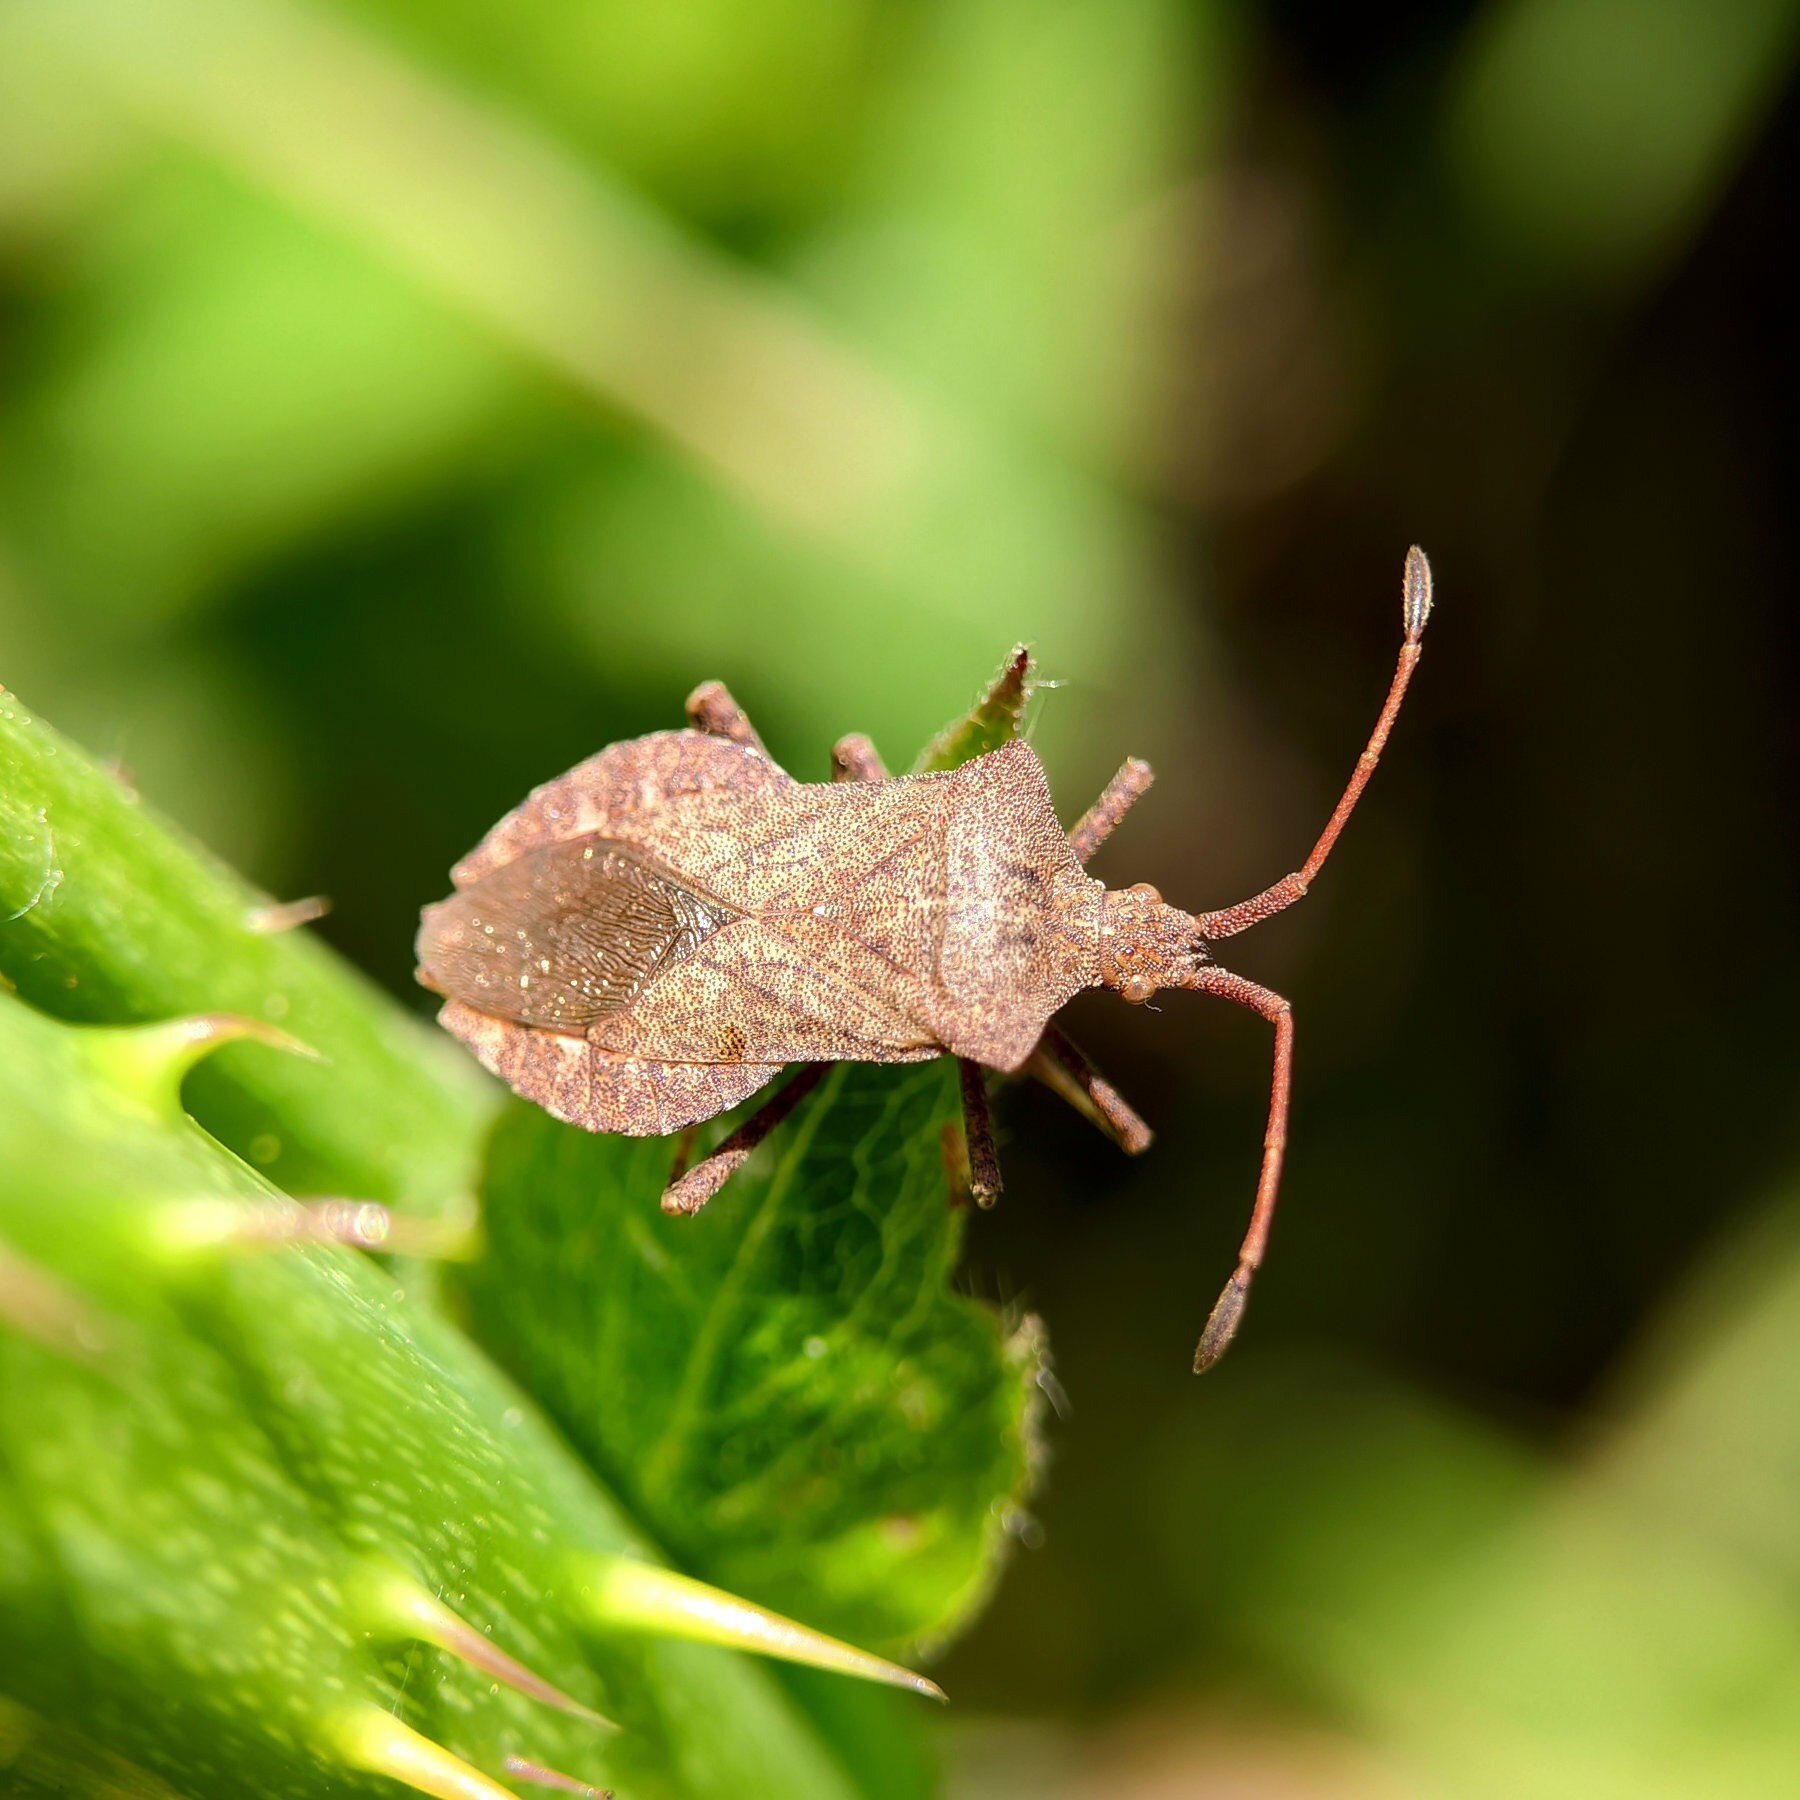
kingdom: Animalia
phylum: Arthropoda
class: Insecta
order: Hemiptera
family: Coreidae
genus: Coreus
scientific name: Coreus marginatus
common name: Dock bug
